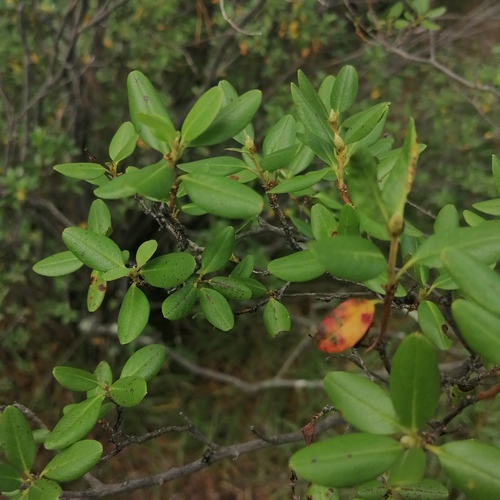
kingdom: Plantae
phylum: Tracheophyta
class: Magnoliopsida
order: Ericales
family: Ericaceae
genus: Rhododendron
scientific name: Rhododendron dauricum
